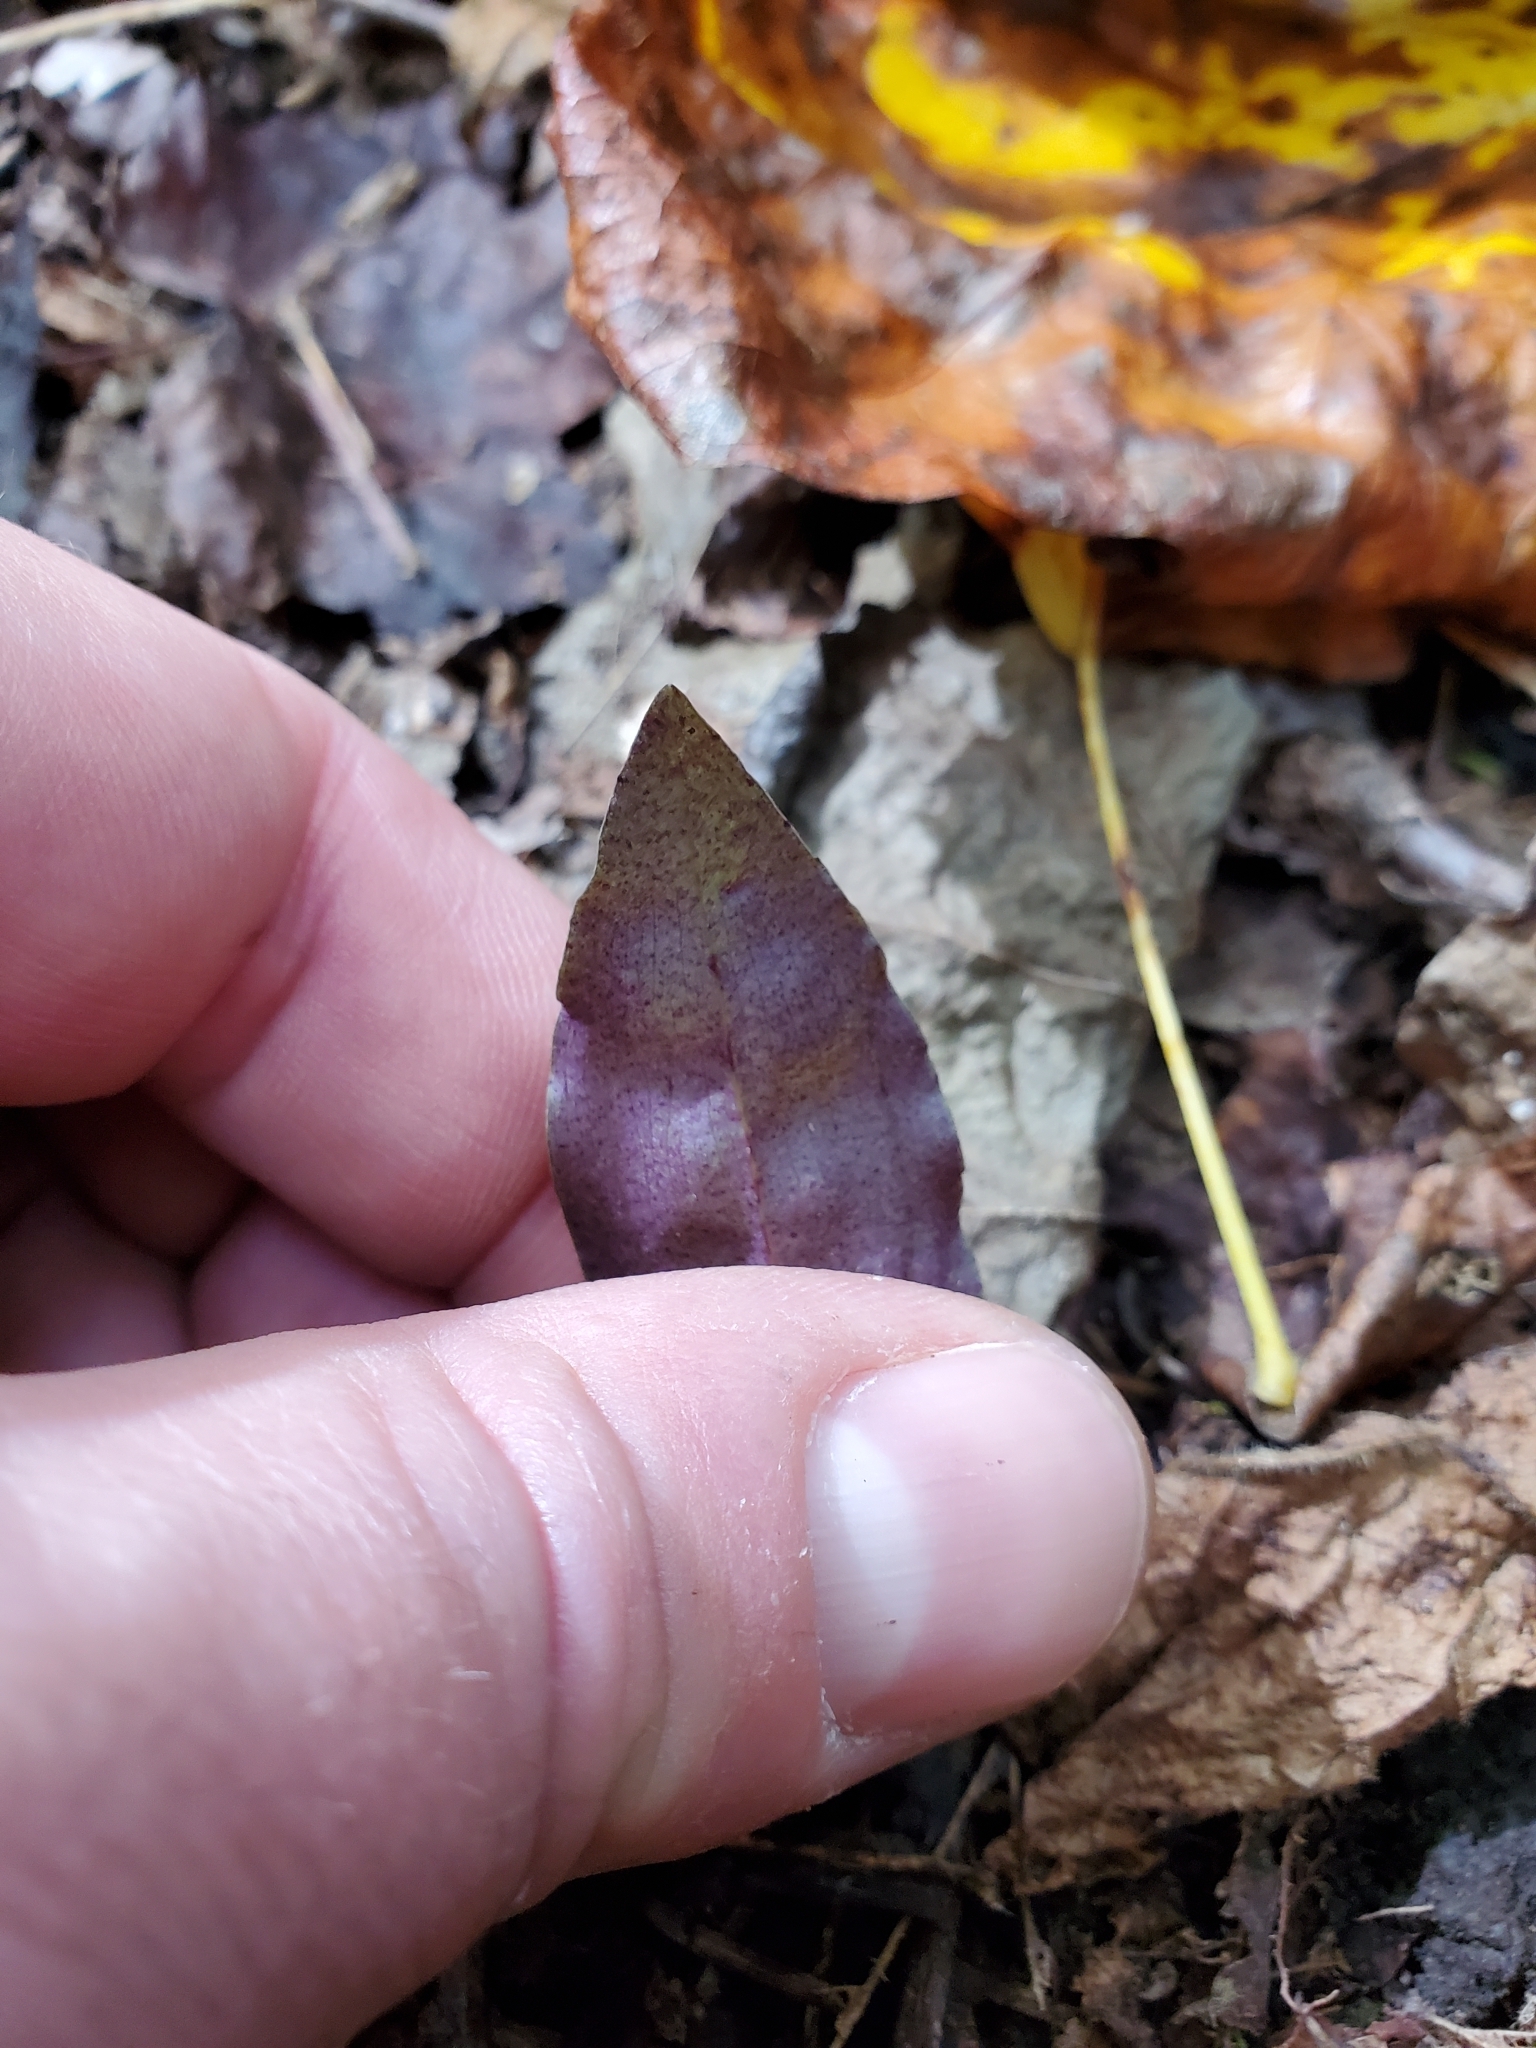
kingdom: Plantae
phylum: Tracheophyta
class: Liliopsida
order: Asparagales
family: Orchidaceae
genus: Tipularia
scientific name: Tipularia discolor
